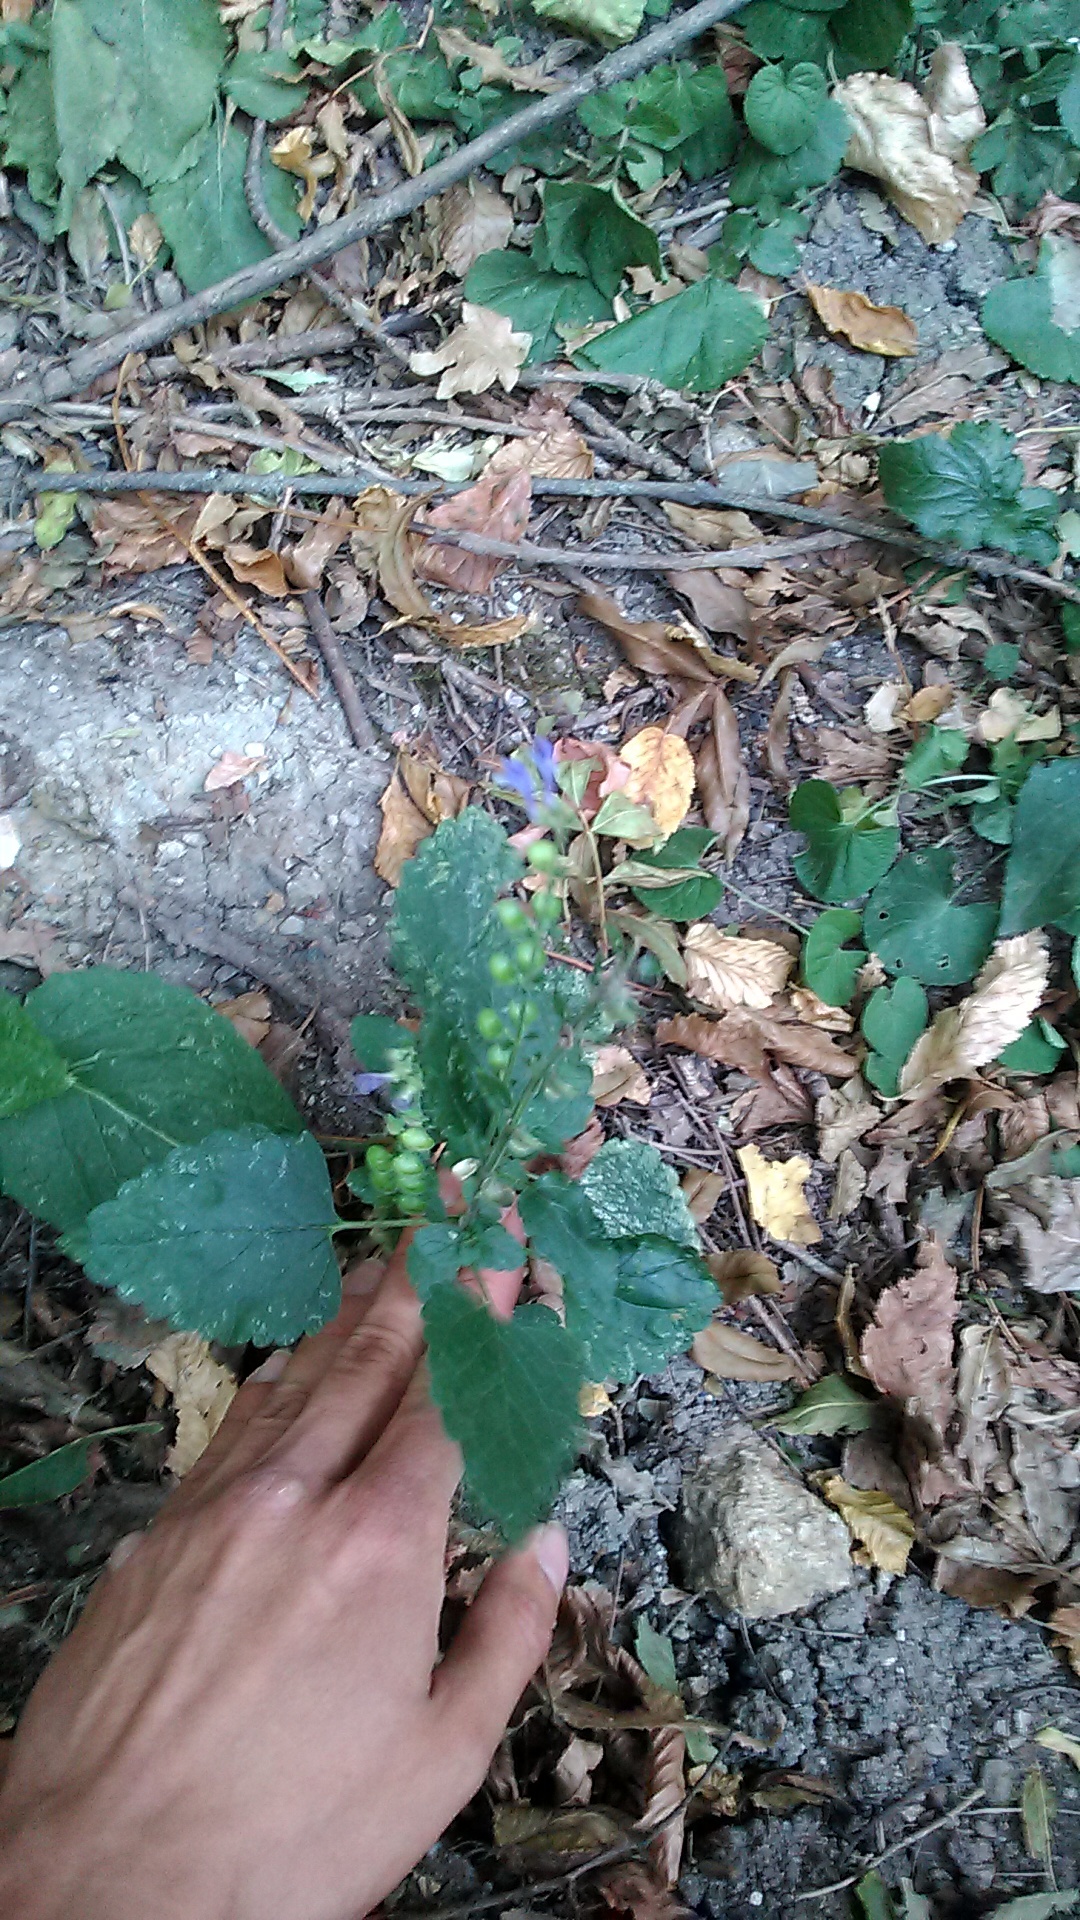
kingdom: Plantae
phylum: Tracheophyta
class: Magnoliopsida
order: Lamiales
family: Lamiaceae
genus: Scutellaria
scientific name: Scutellaria altissima
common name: Somerset skullcap
